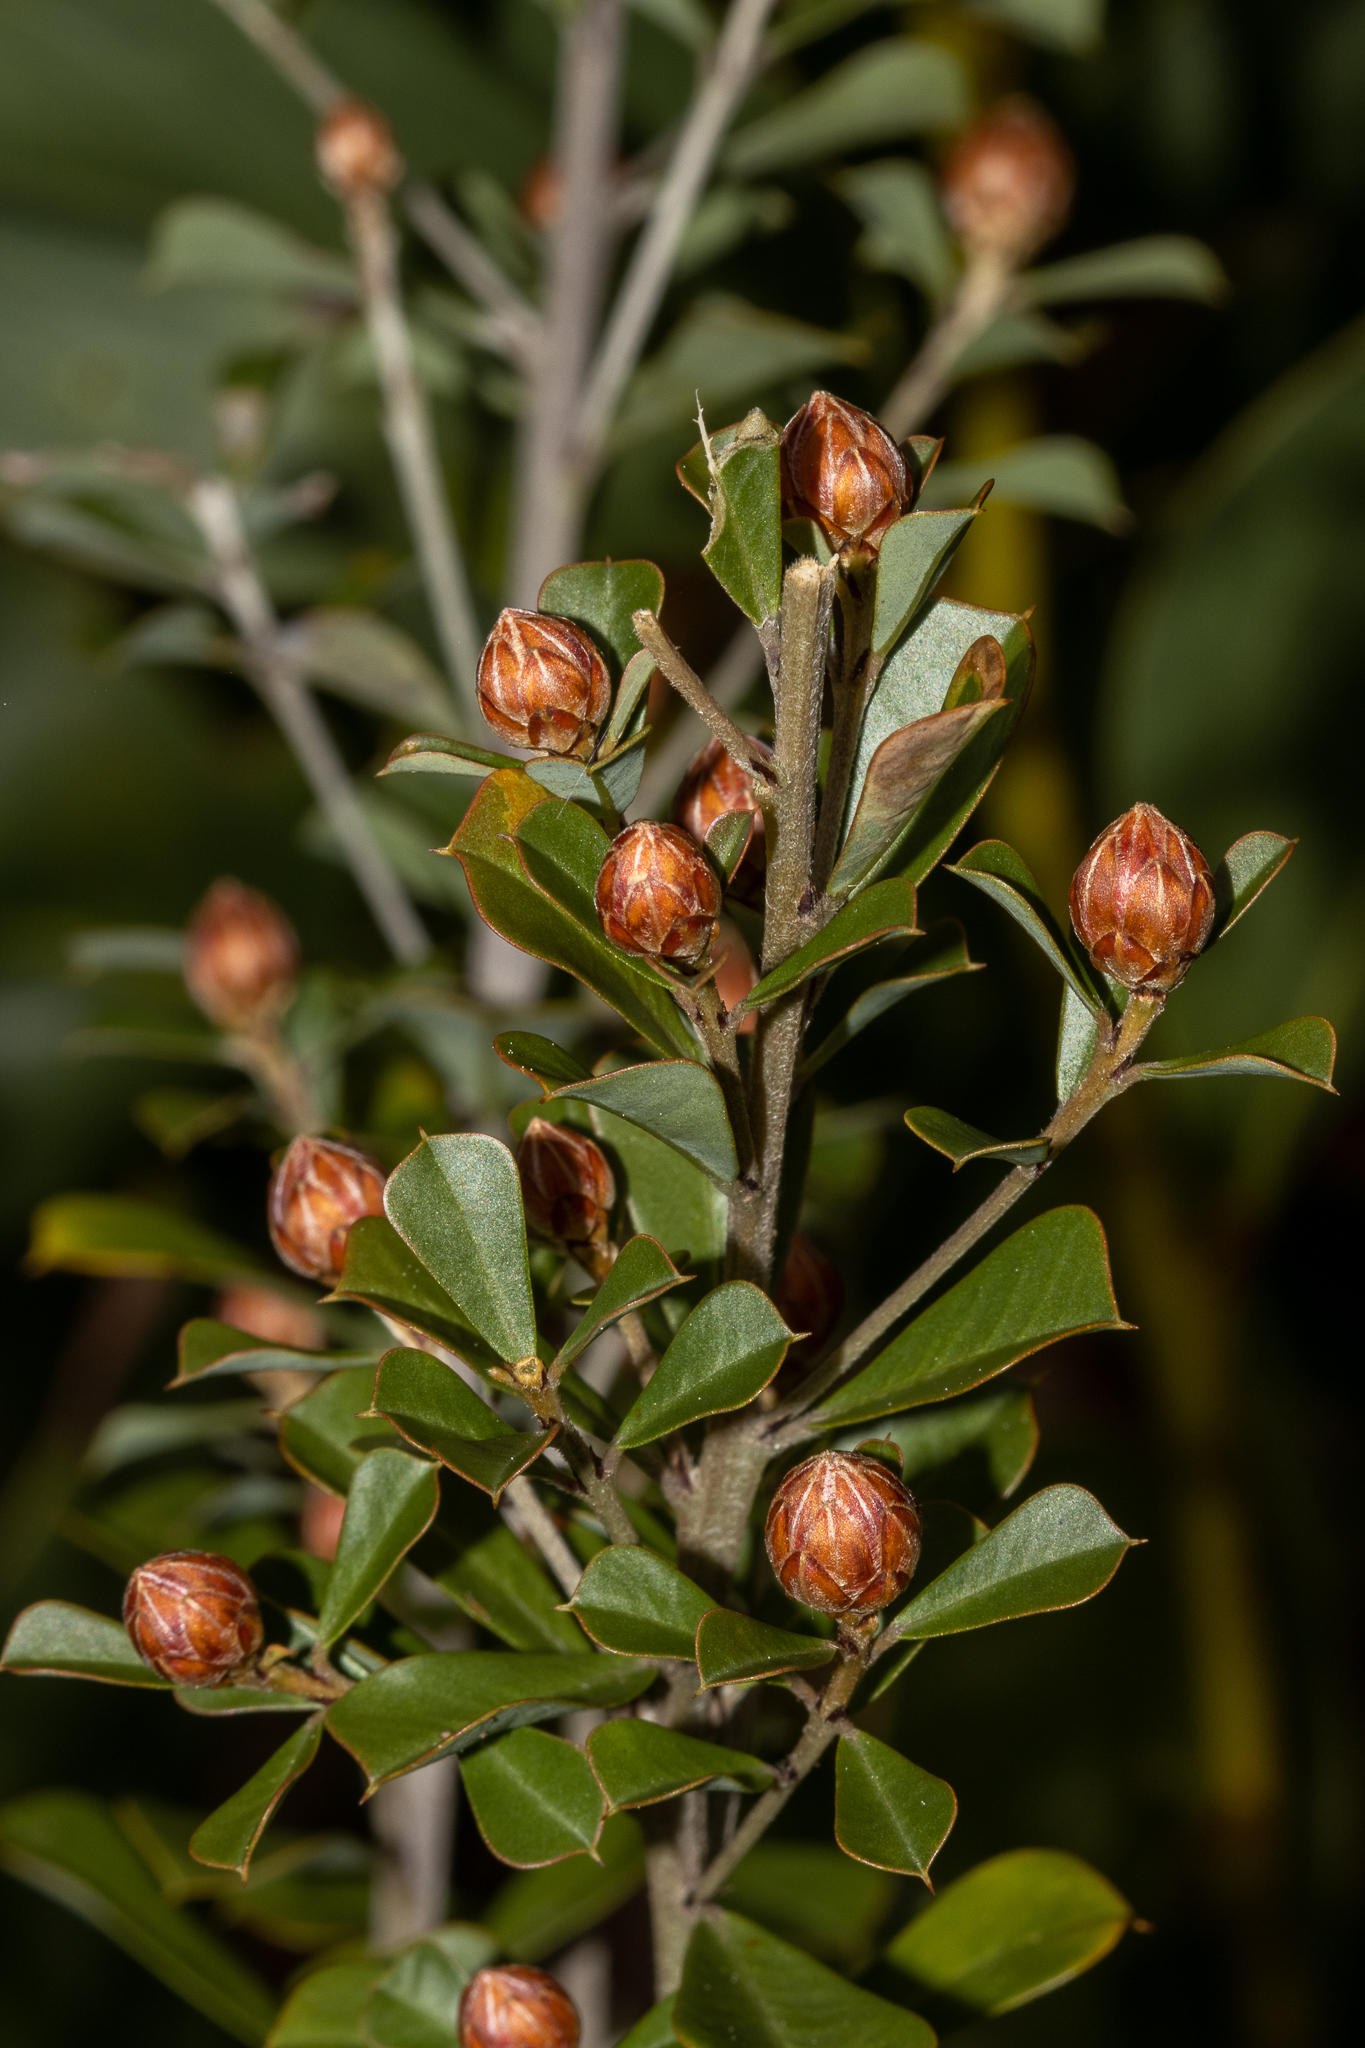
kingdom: Plantae
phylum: Tracheophyta
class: Magnoliopsida
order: Fabales
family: Fabaceae
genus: Pultenaea
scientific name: Pultenaea daphnoides
